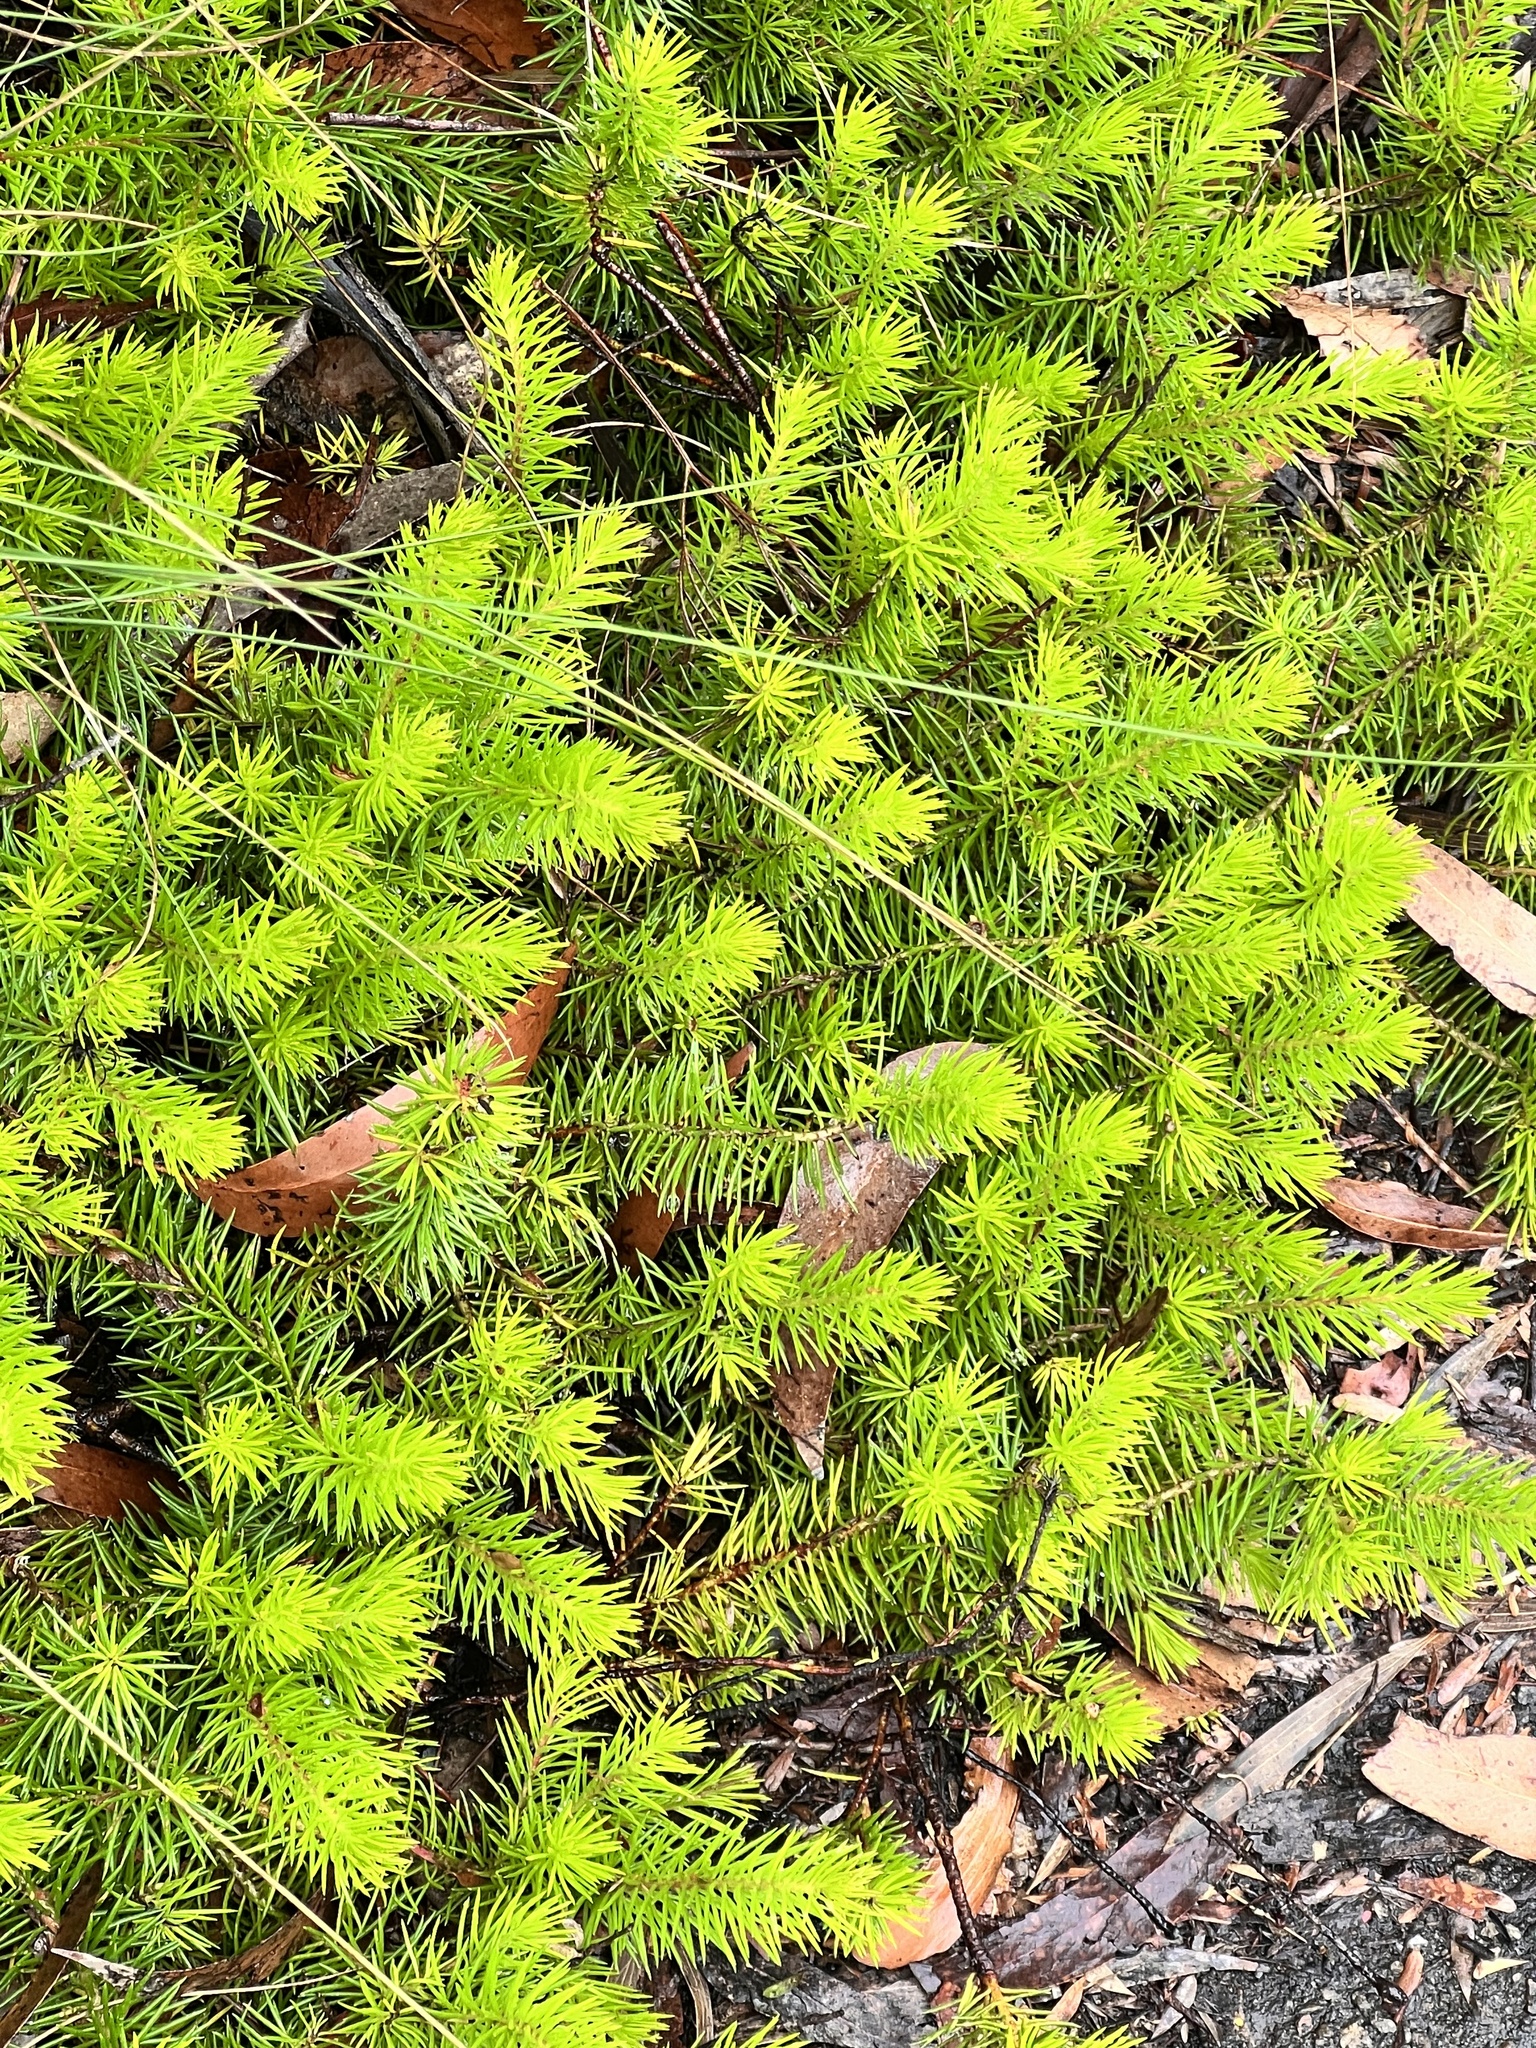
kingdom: Plantae
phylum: Tracheophyta
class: Magnoliopsida
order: Proteales
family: Proteaceae
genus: Persoonia
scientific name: Persoonia chamaepitys
